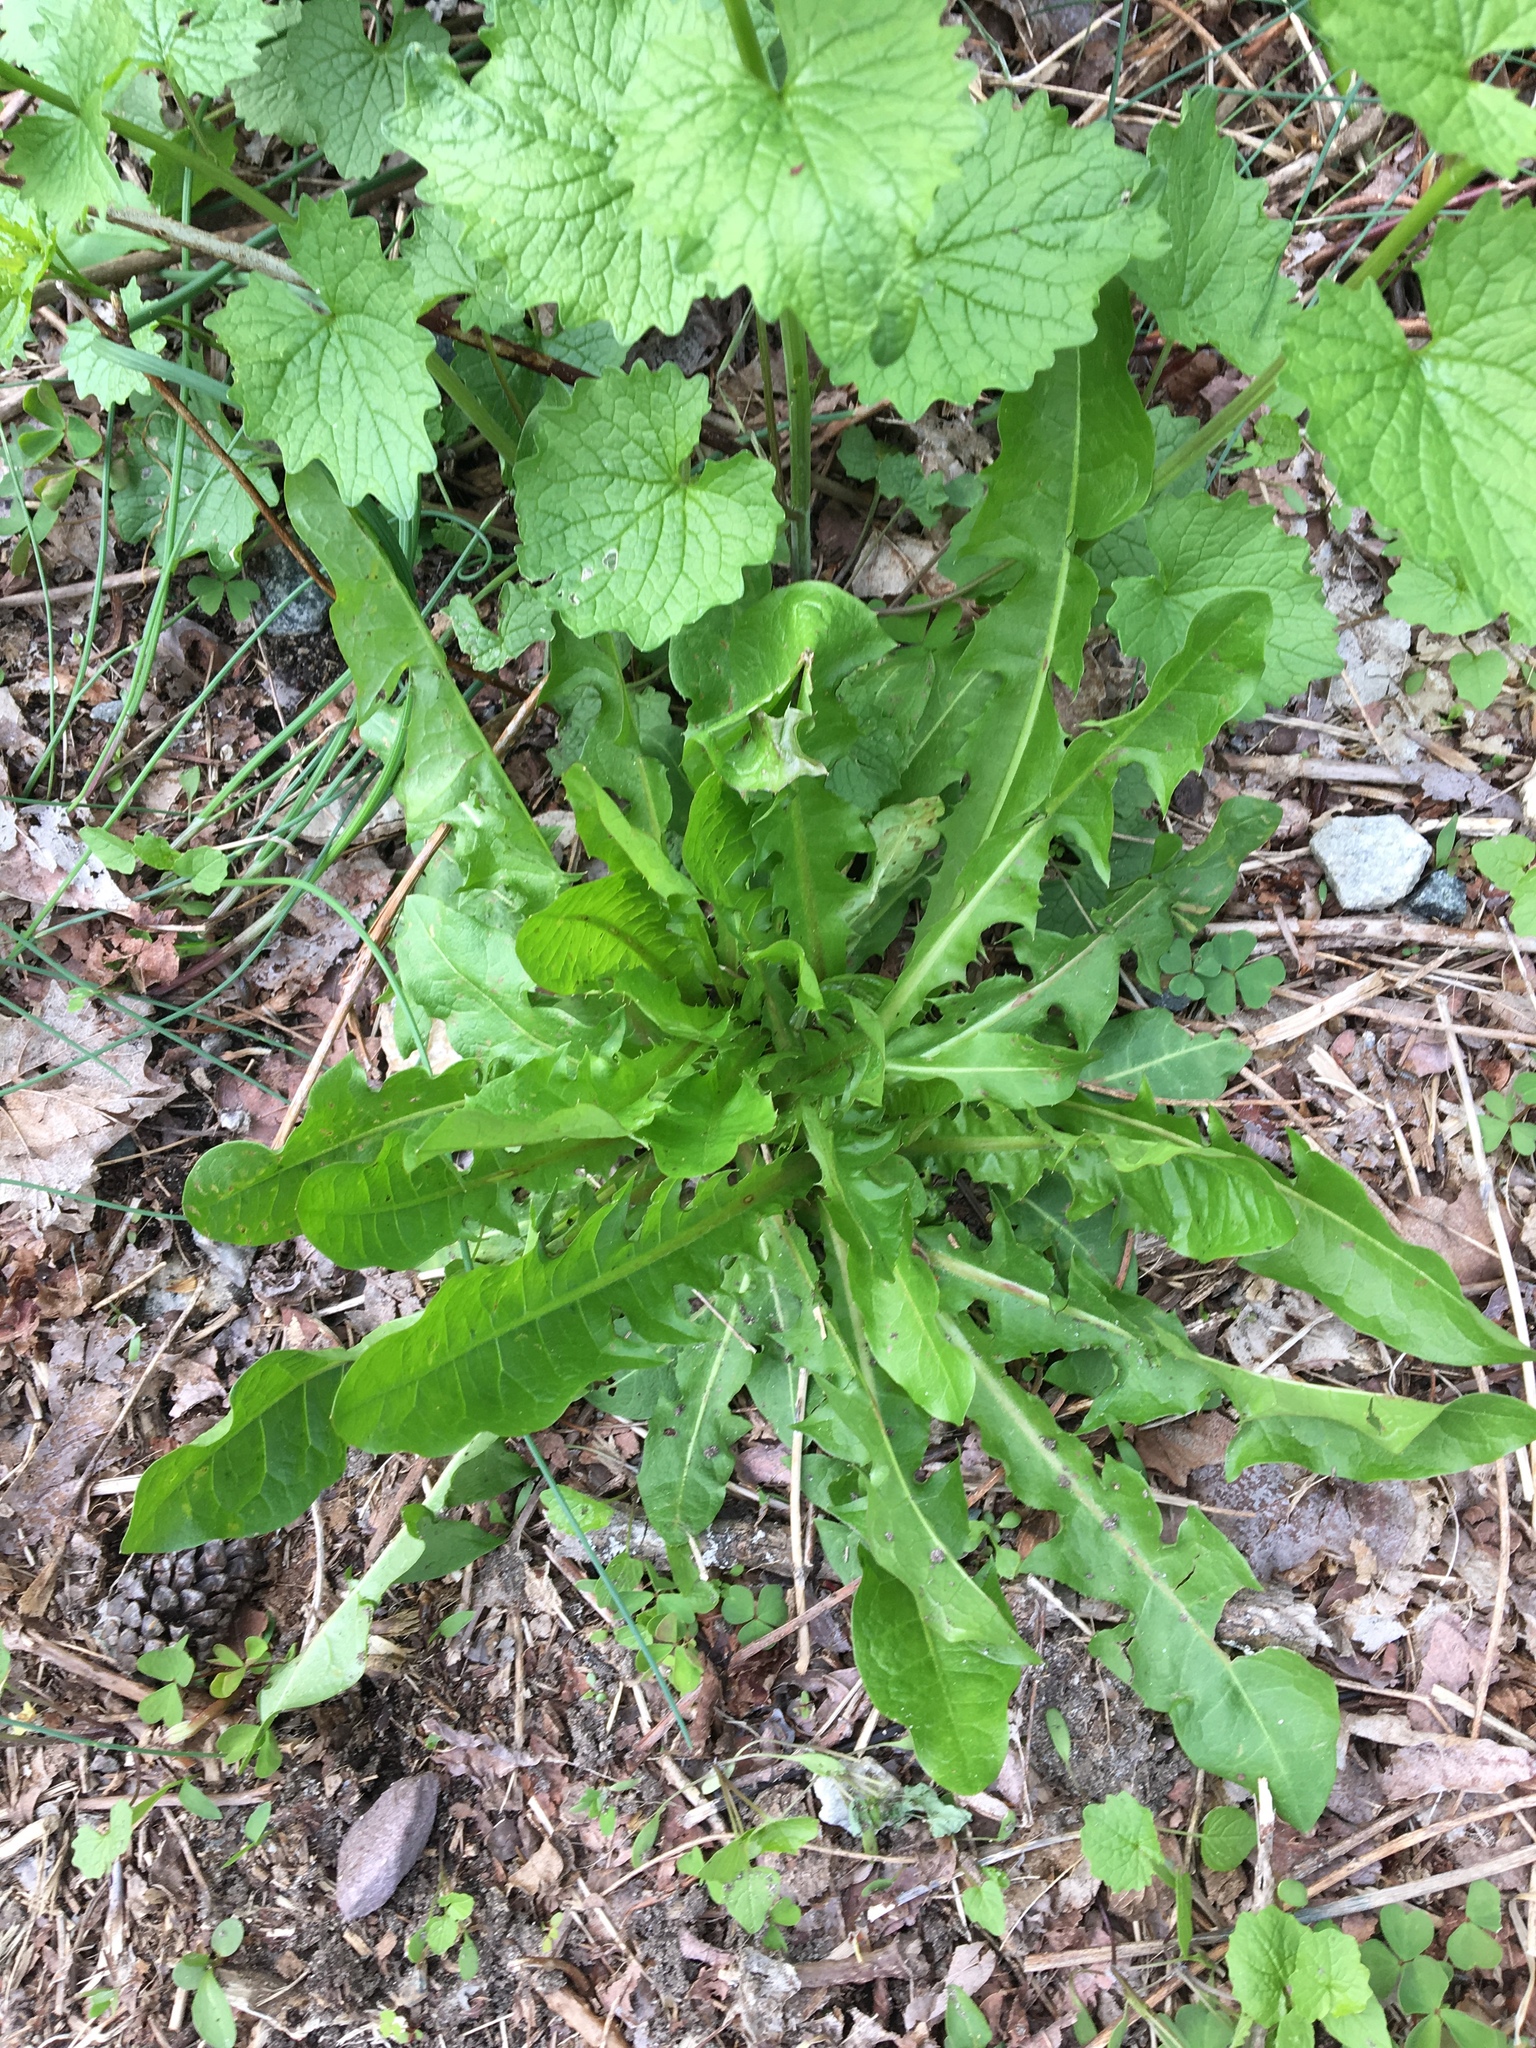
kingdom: Plantae
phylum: Tracheophyta
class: Magnoliopsida
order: Asterales
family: Asteraceae
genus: Taraxacum
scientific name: Taraxacum officinale
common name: Common dandelion
